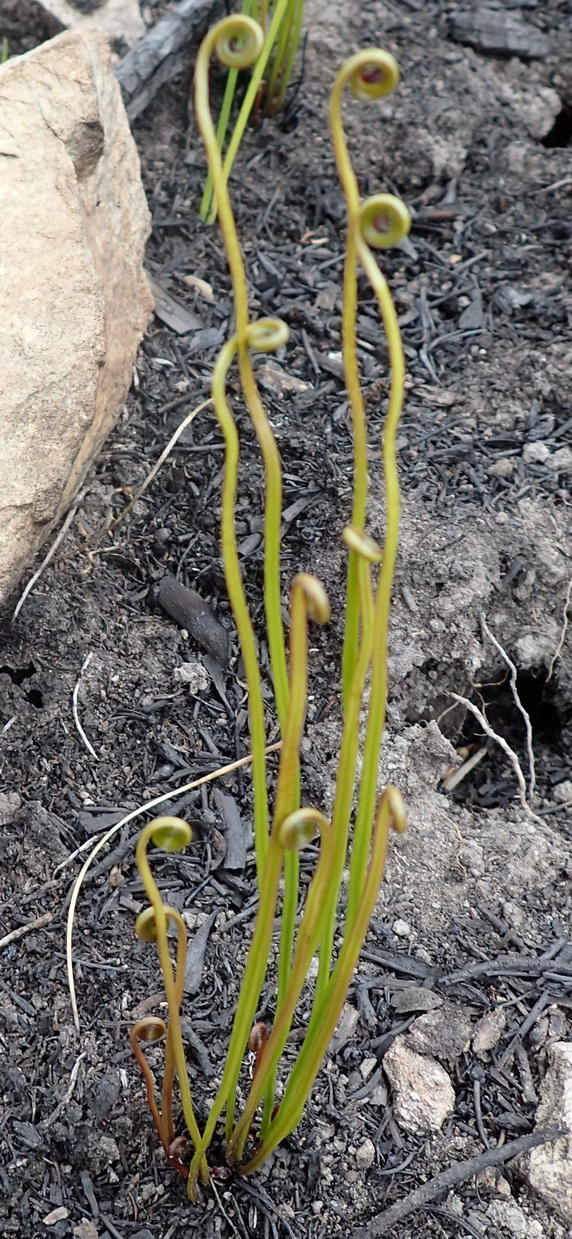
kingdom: Plantae
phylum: Tracheophyta
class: Polypodiopsida
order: Schizaeales
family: Schizaeaceae
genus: Schizaea
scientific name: Schizaea pectinata
